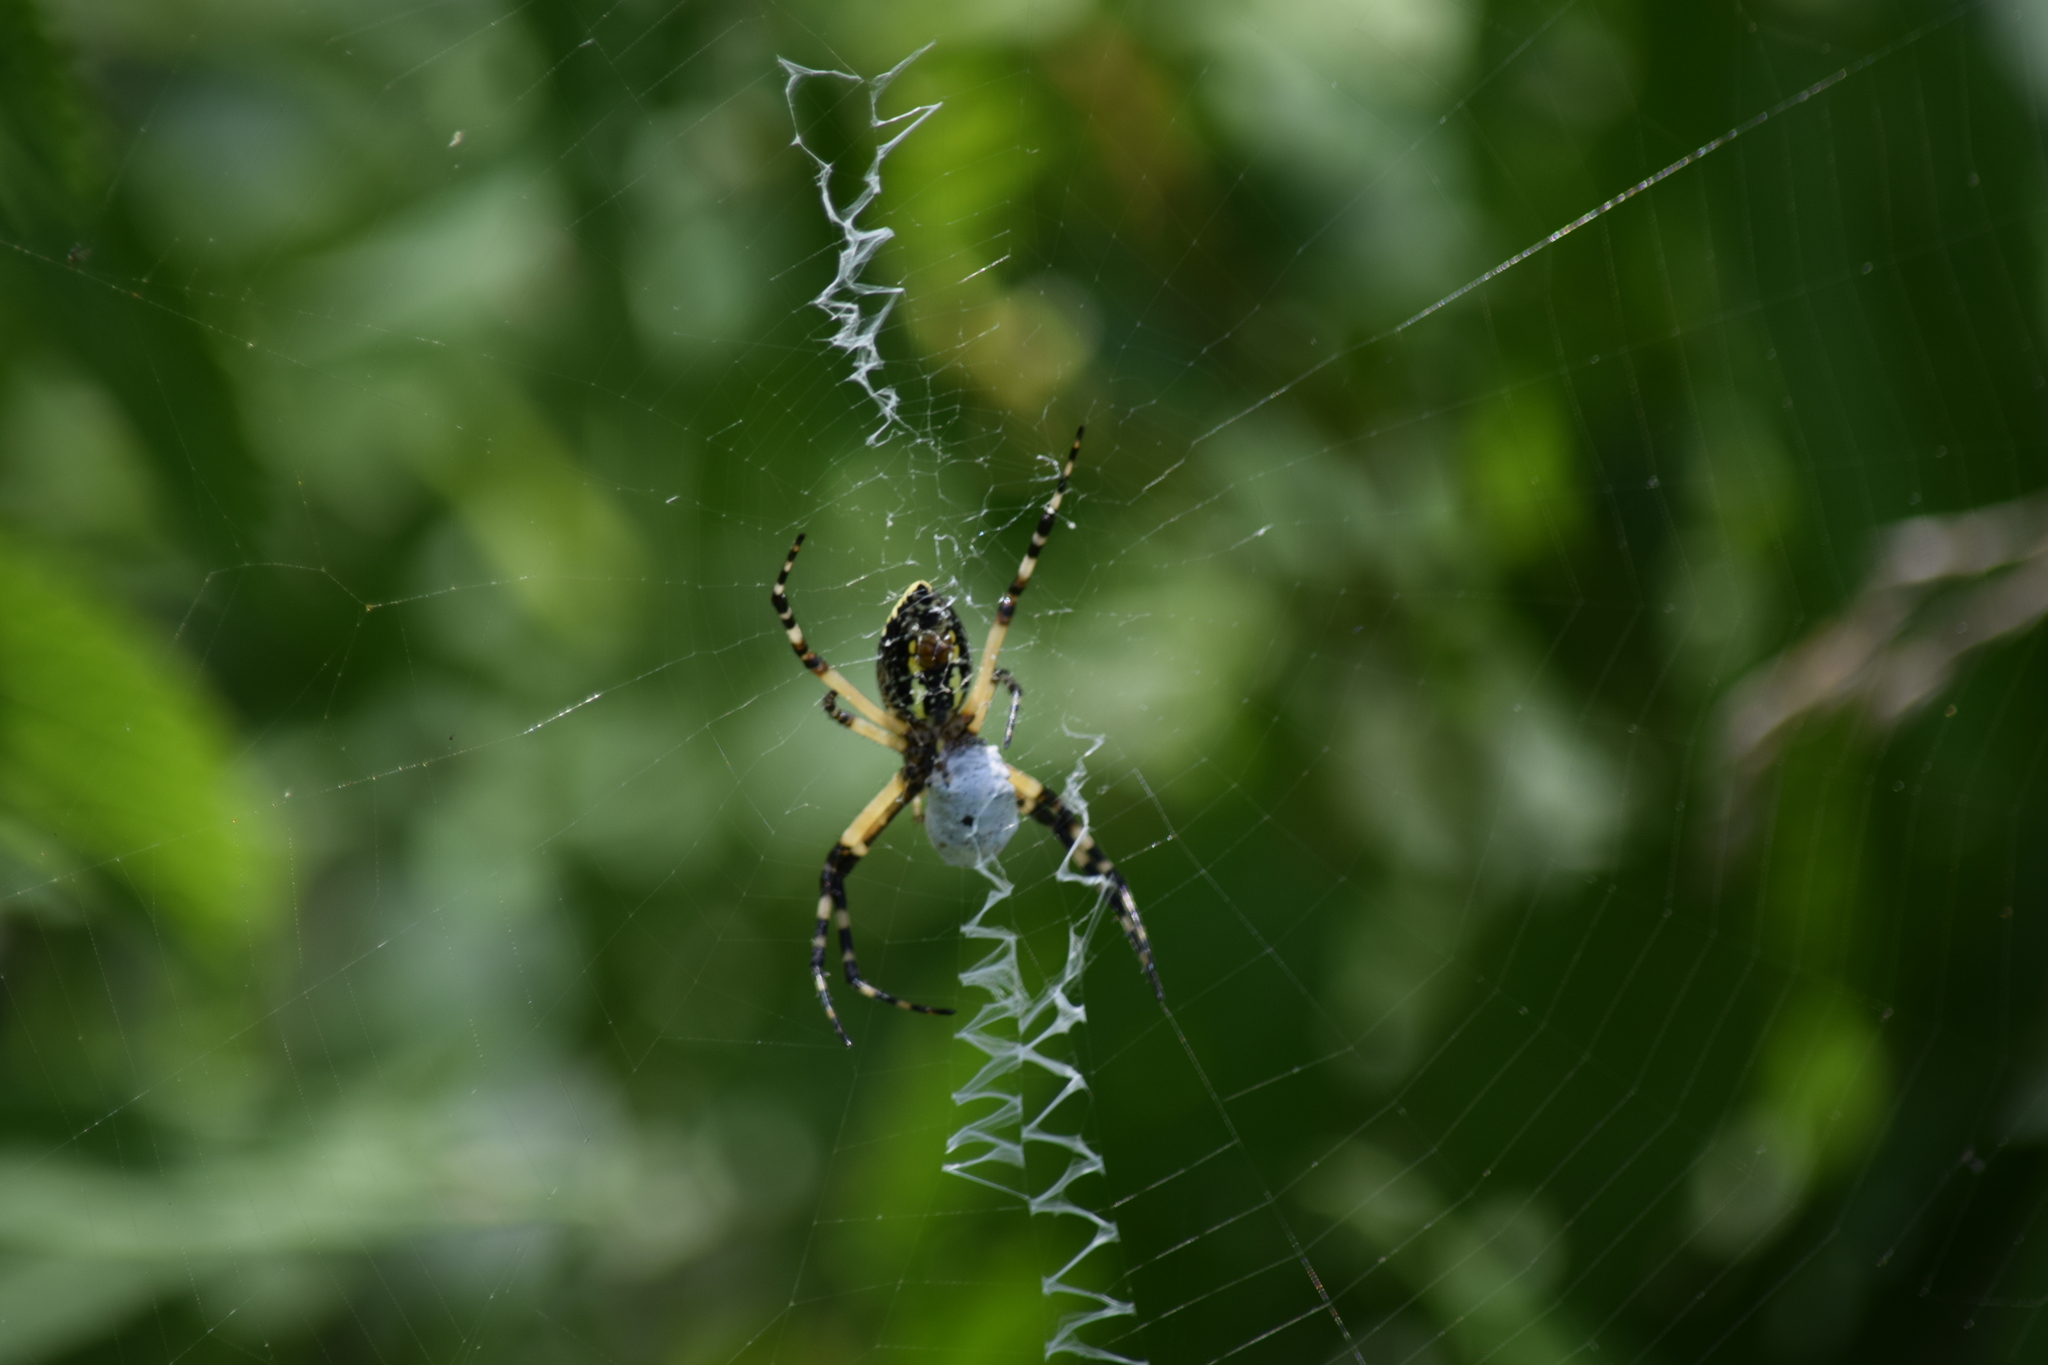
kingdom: Animalia
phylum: Arthropoda
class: Arachnida
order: Araneae
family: Araneidae
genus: Argiope
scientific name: Argiope aurantia
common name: Orb weavers
